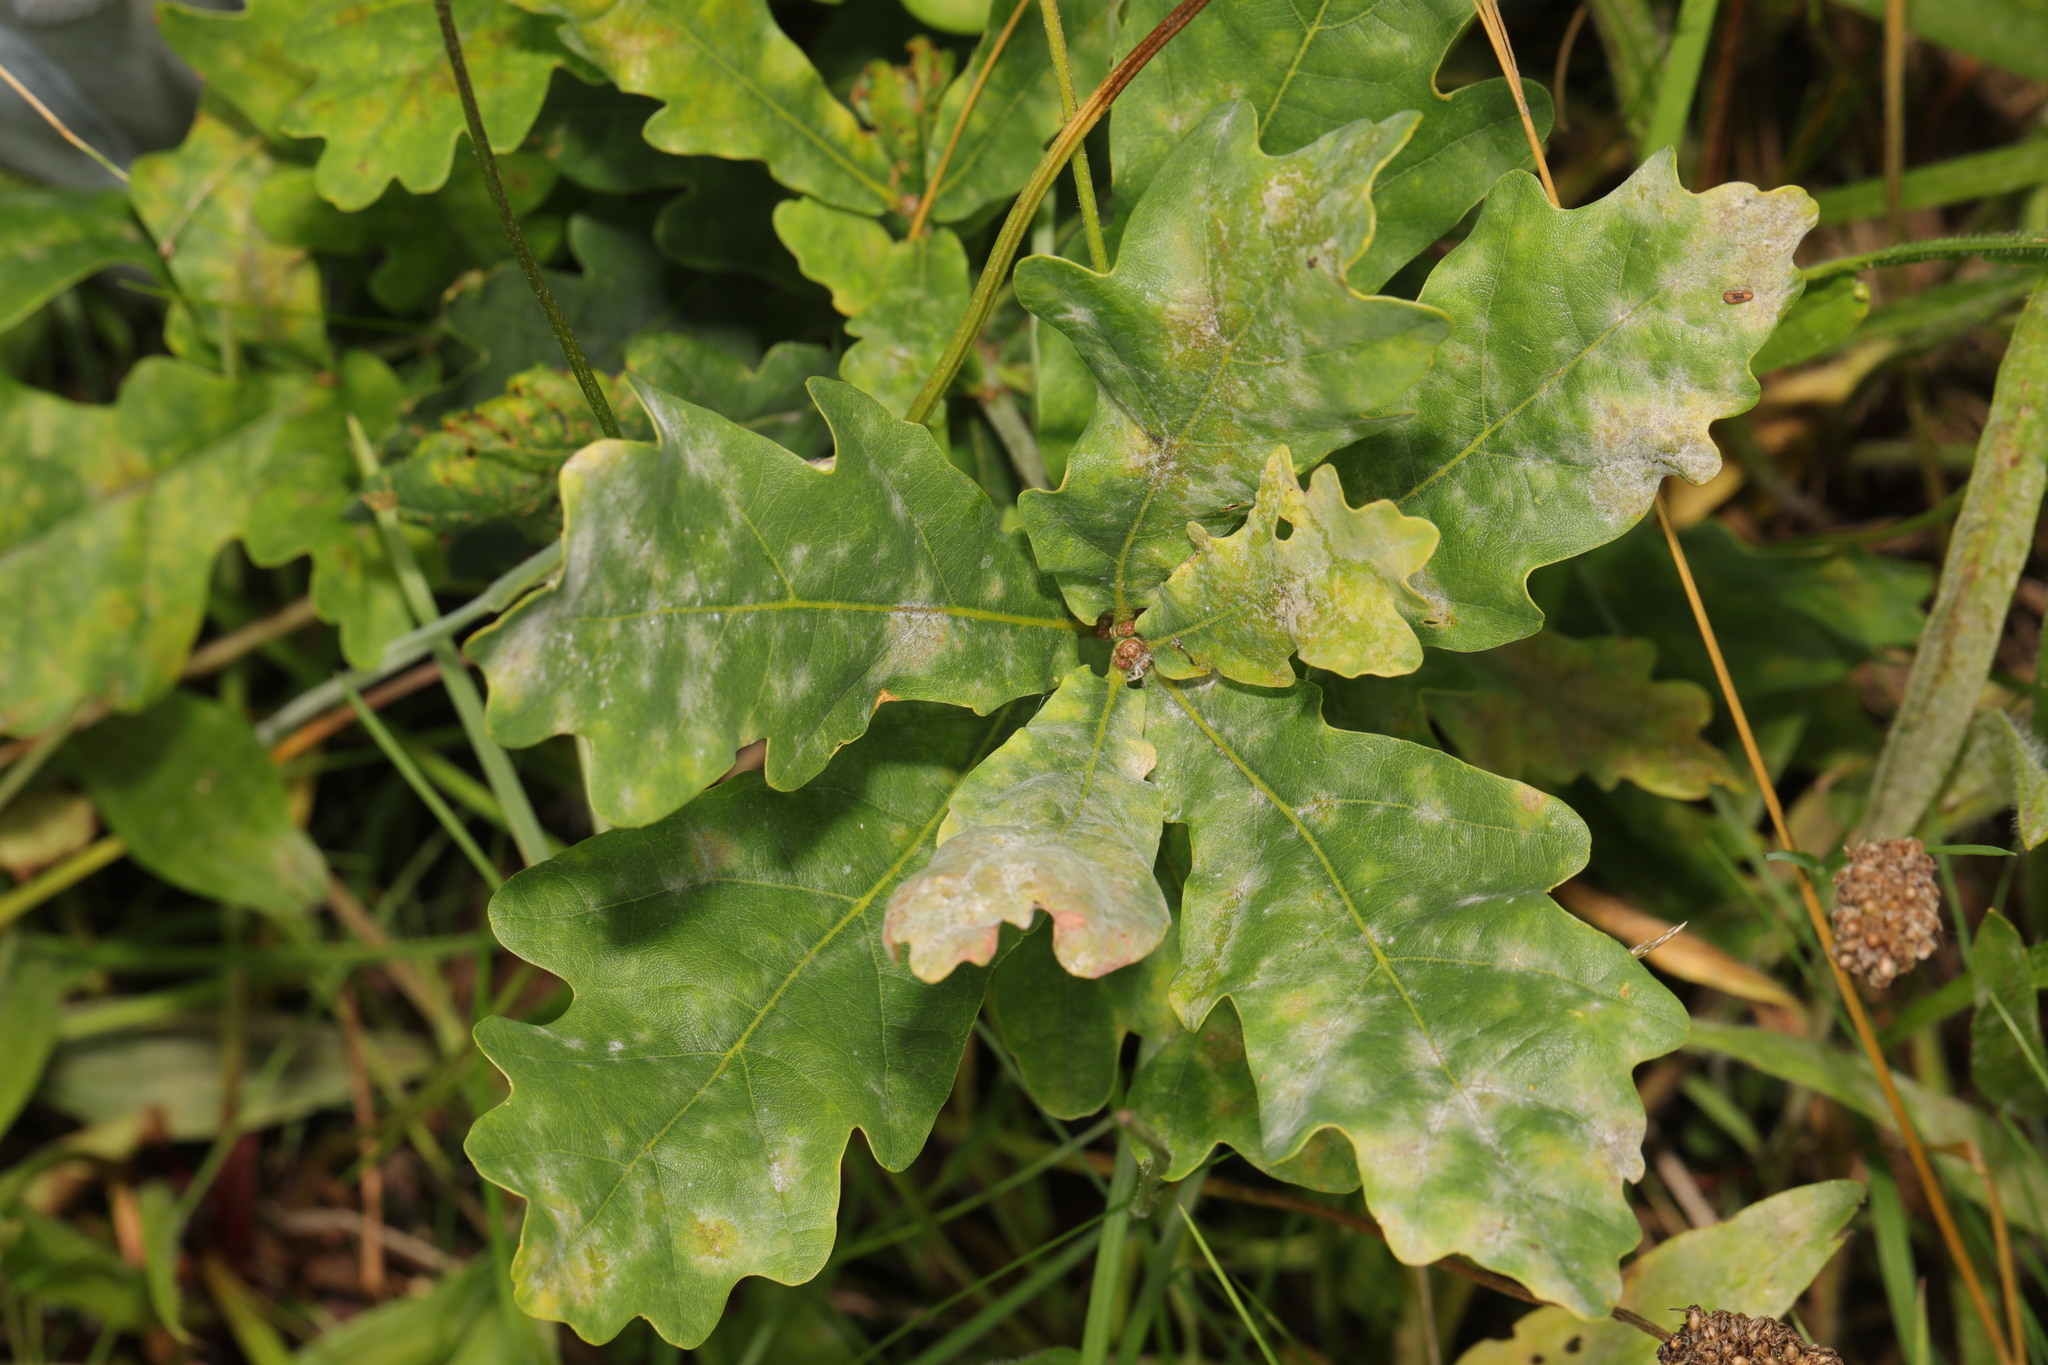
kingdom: Plantae
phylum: Tracheophyta
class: Magnoliopsida
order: Fagales
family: Fagaceae
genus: Quercus
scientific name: Quercus robur
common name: Pedunculate oak
